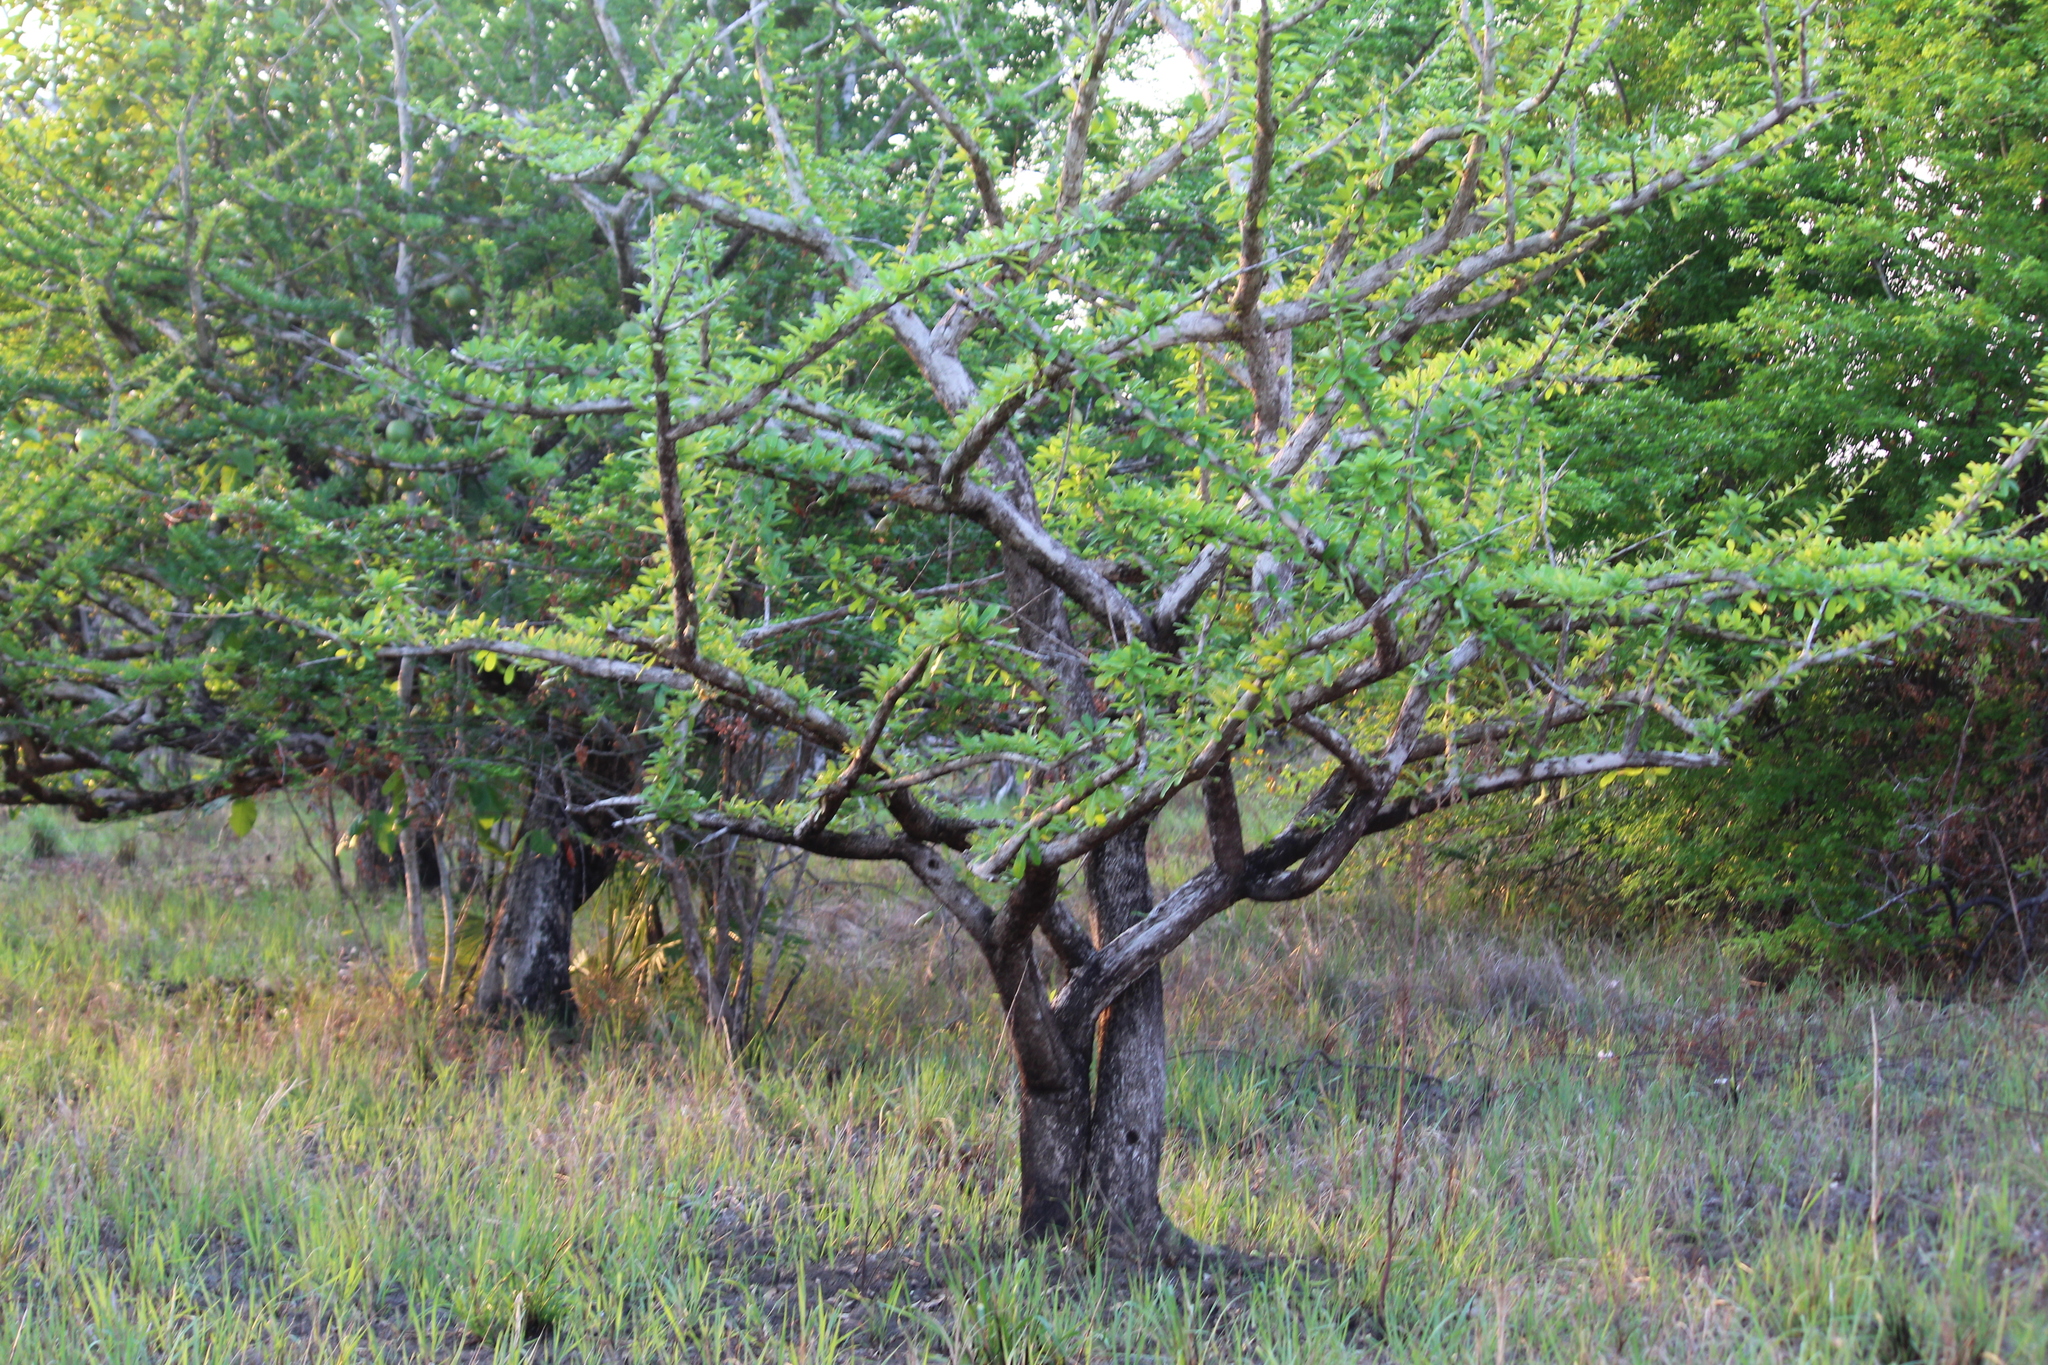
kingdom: Plantae
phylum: Tracheophyta
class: Magnoliopsida
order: Lamiales
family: Bignoniaceae
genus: Crescentia
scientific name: Crescentia cujete
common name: Calabash
